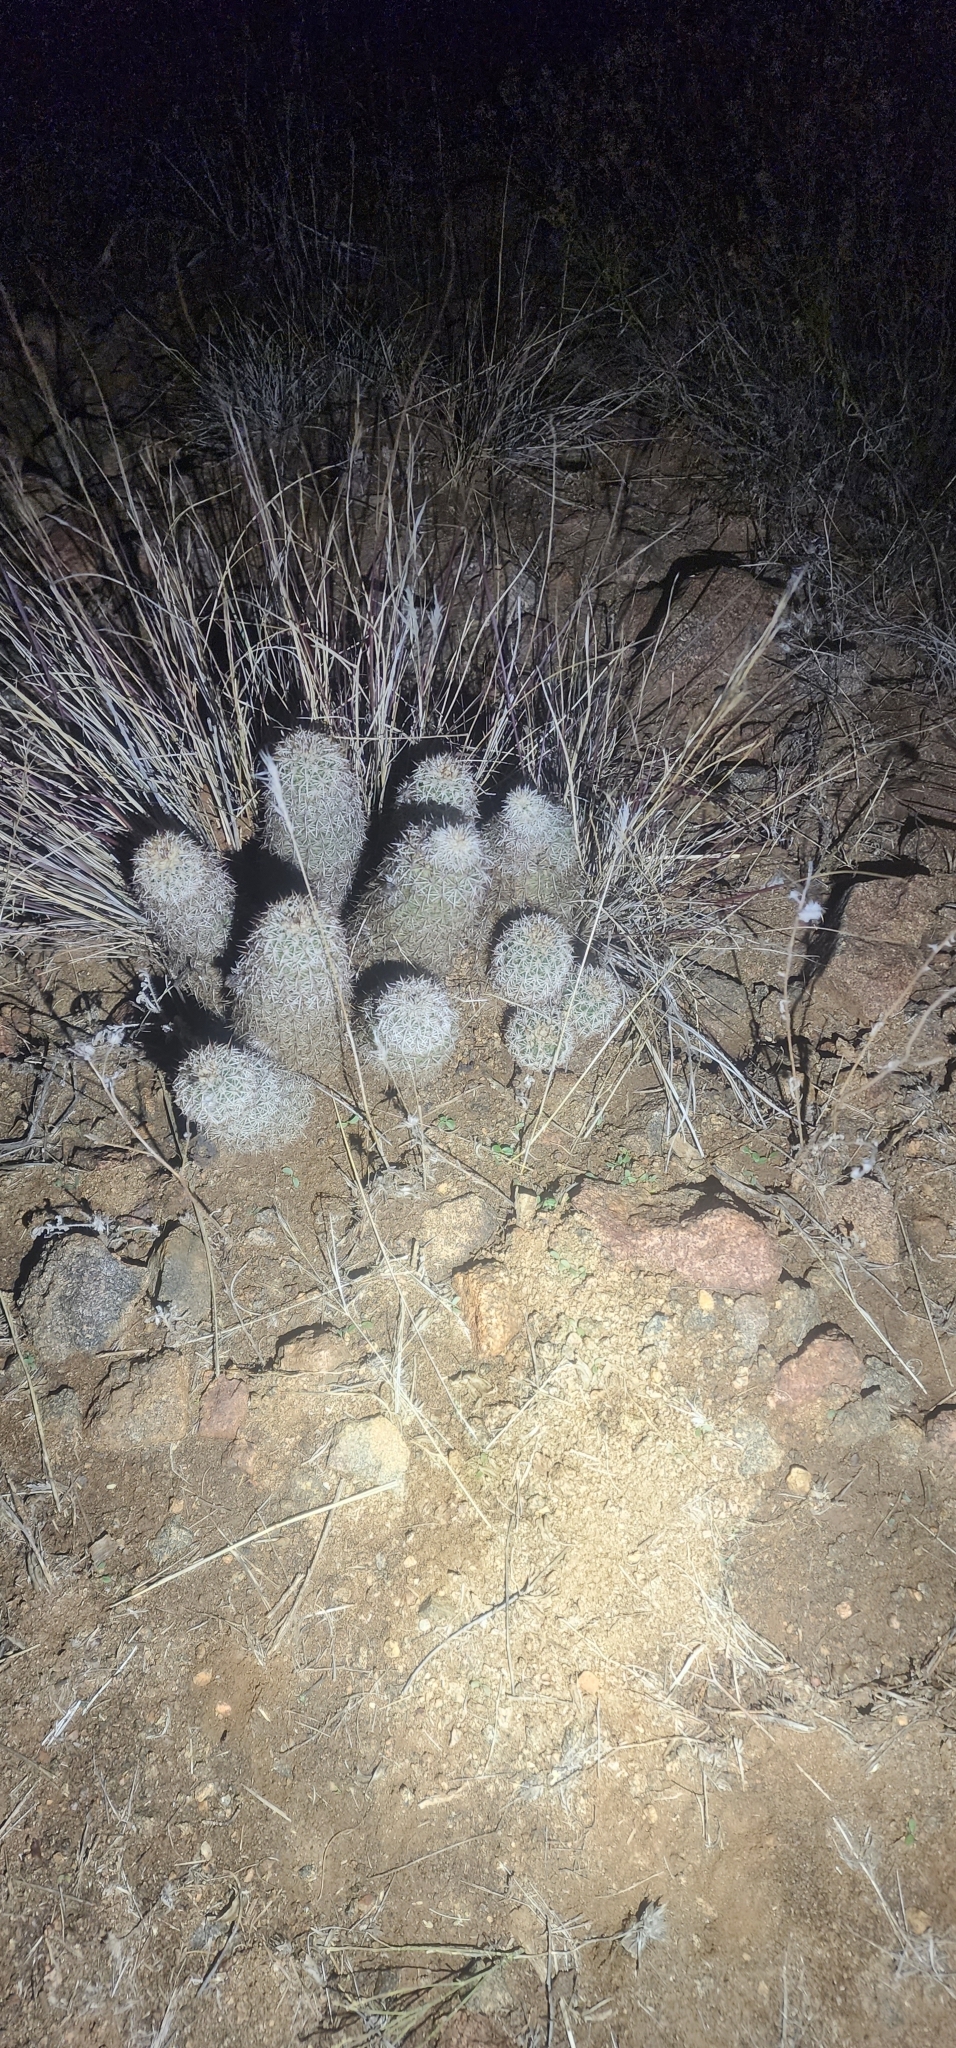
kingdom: Plantae
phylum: Tracheophyta
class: Magnoliopsida
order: Caryophyllales
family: Cactaceae
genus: Echinocereus
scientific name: Echinocereus bonkerae
